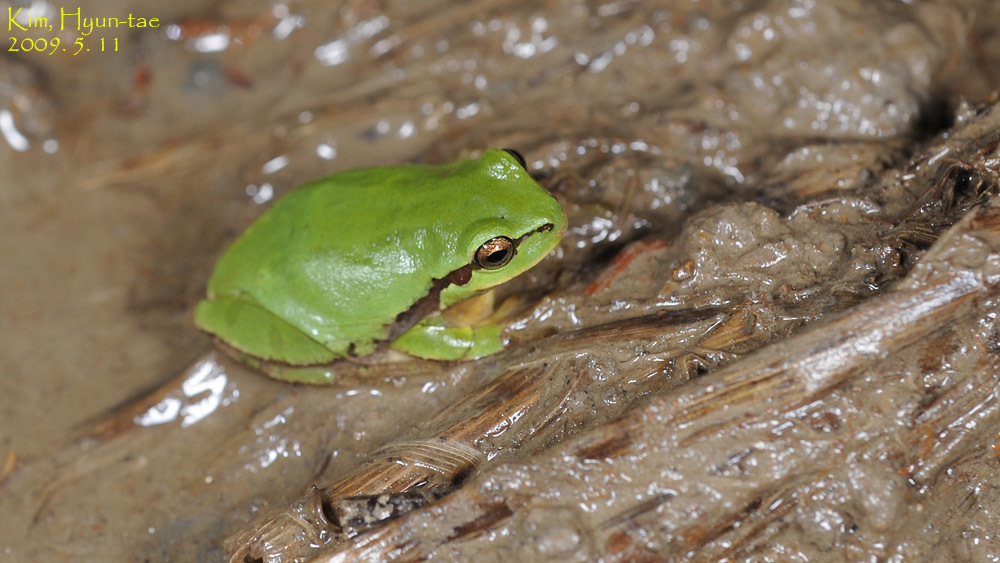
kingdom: Animalia
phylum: Chordata
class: Amphibia
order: Anura
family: Hylidae
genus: Dryophytes
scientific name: Dryophytes immaculatus
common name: North china treefrog
